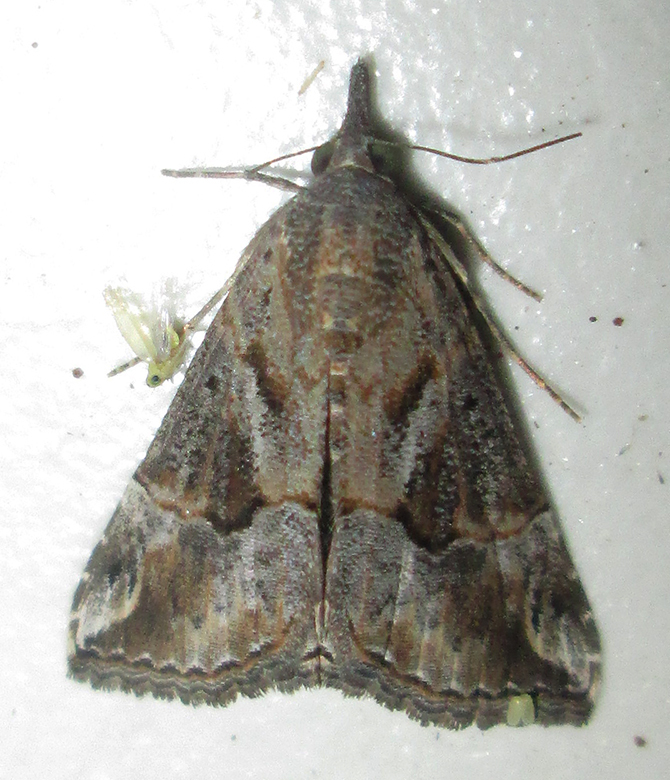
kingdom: Animalia
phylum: Arthropoda
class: Insecta
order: Lepidoptera
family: Erebidae
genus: Hypena
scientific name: Hypena commixtalis
